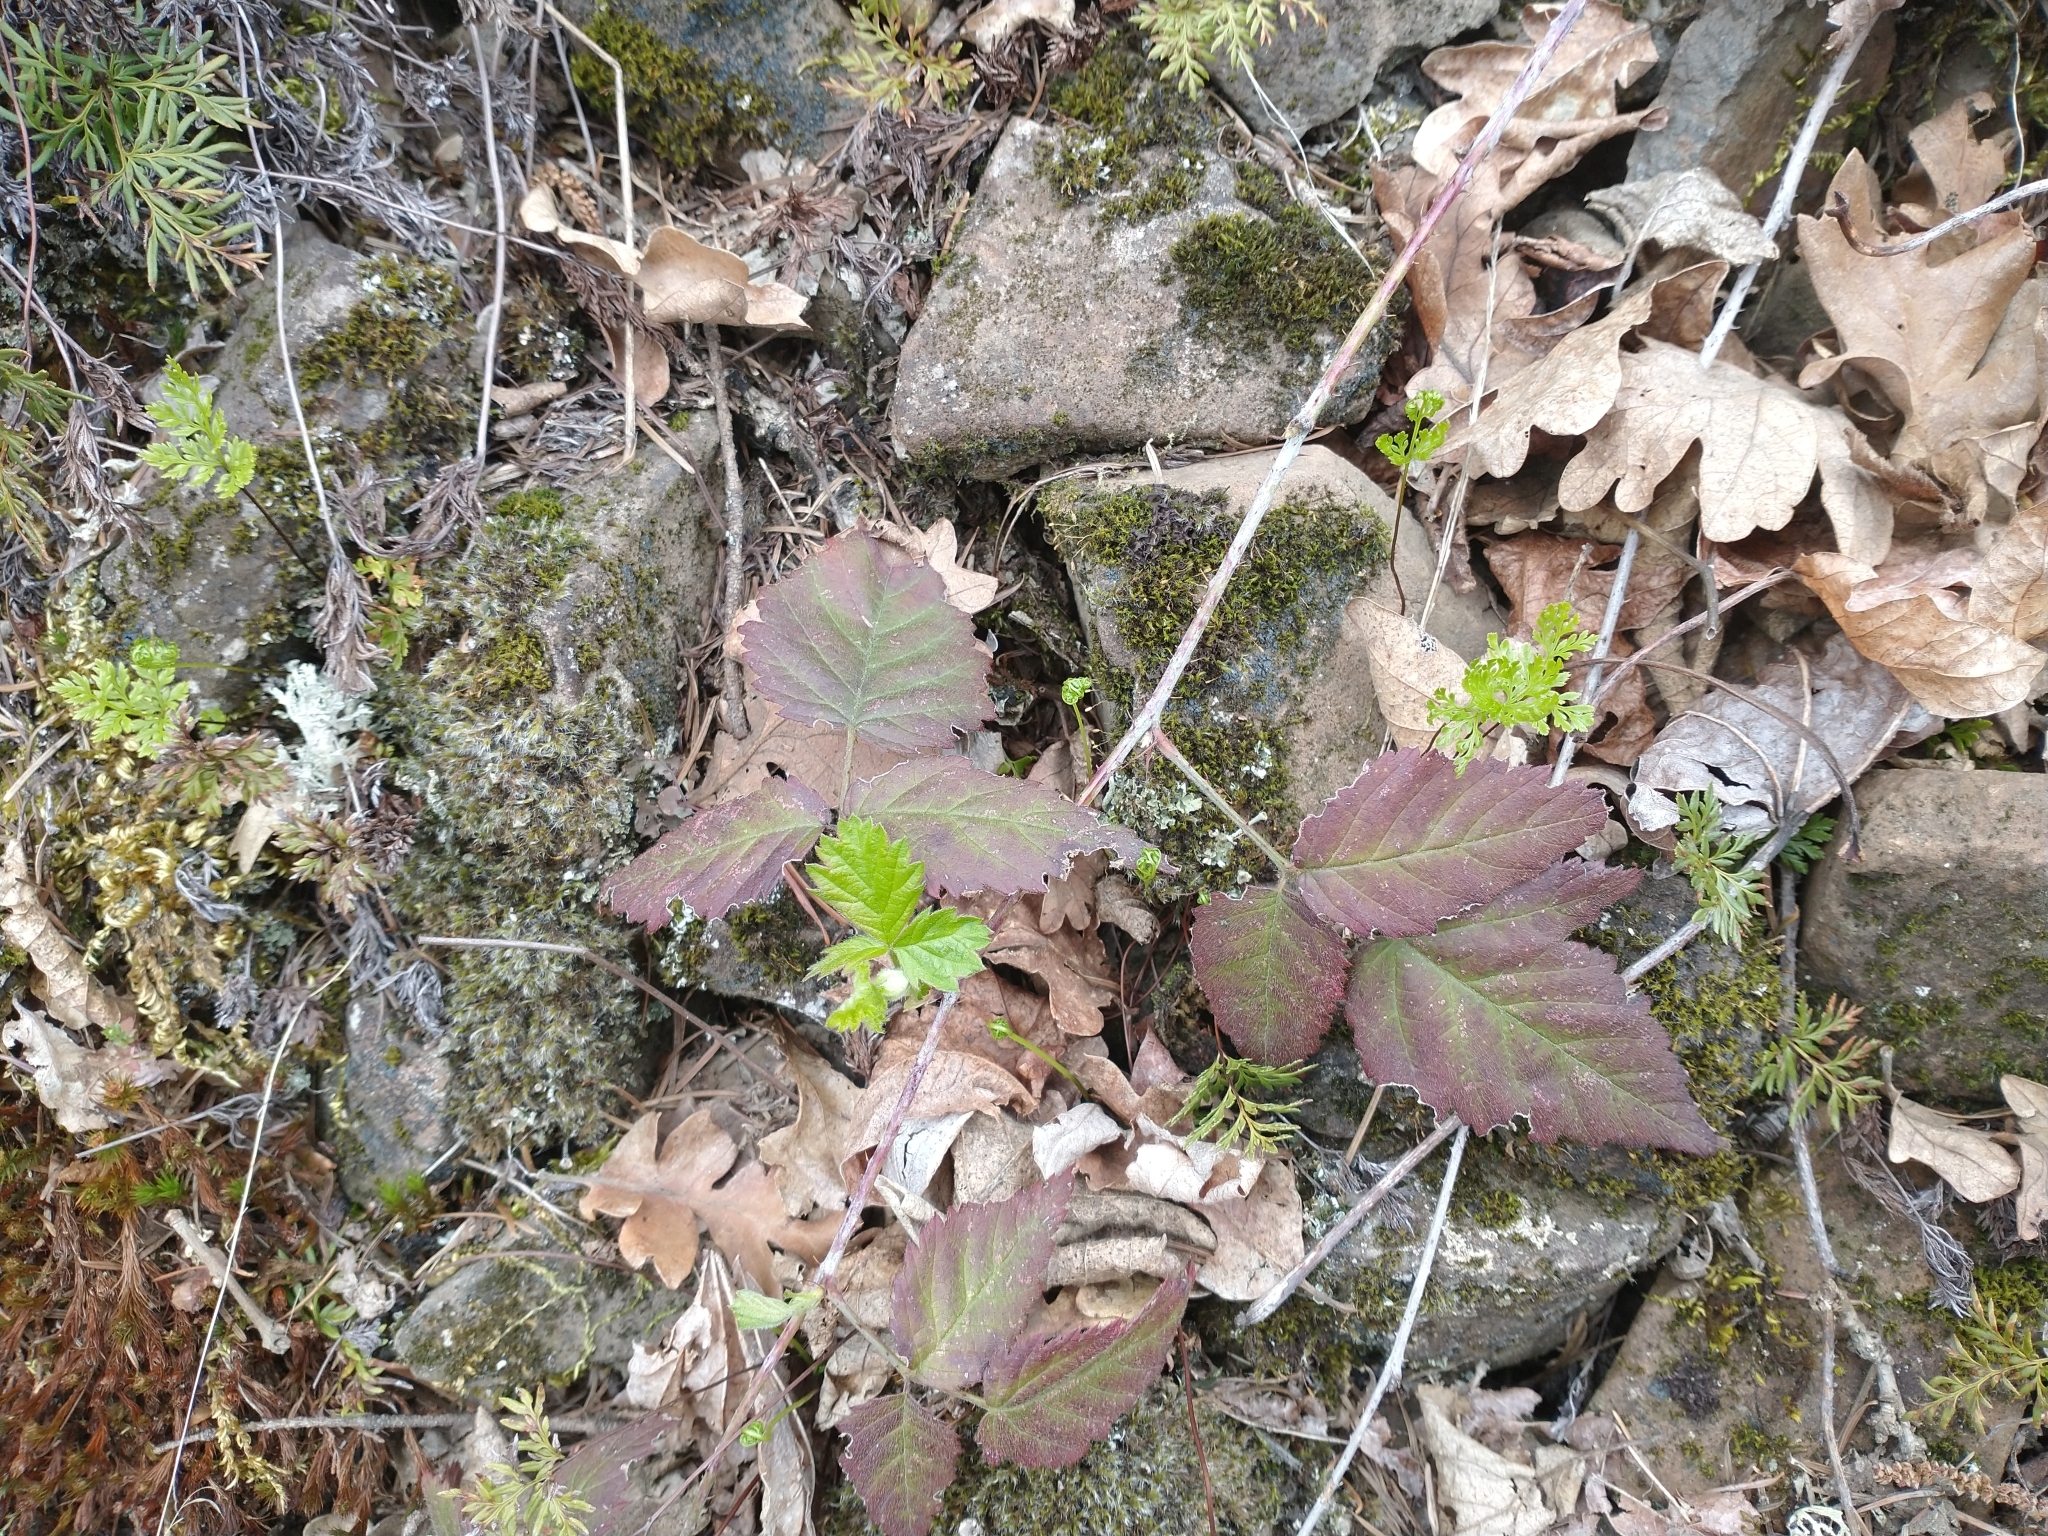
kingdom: Plantae
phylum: Tracheophyta
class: Magnoliopsida
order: Rosales
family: Rosaceae
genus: Rubus
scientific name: Rubus ursinus
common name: Pacific blackberry
